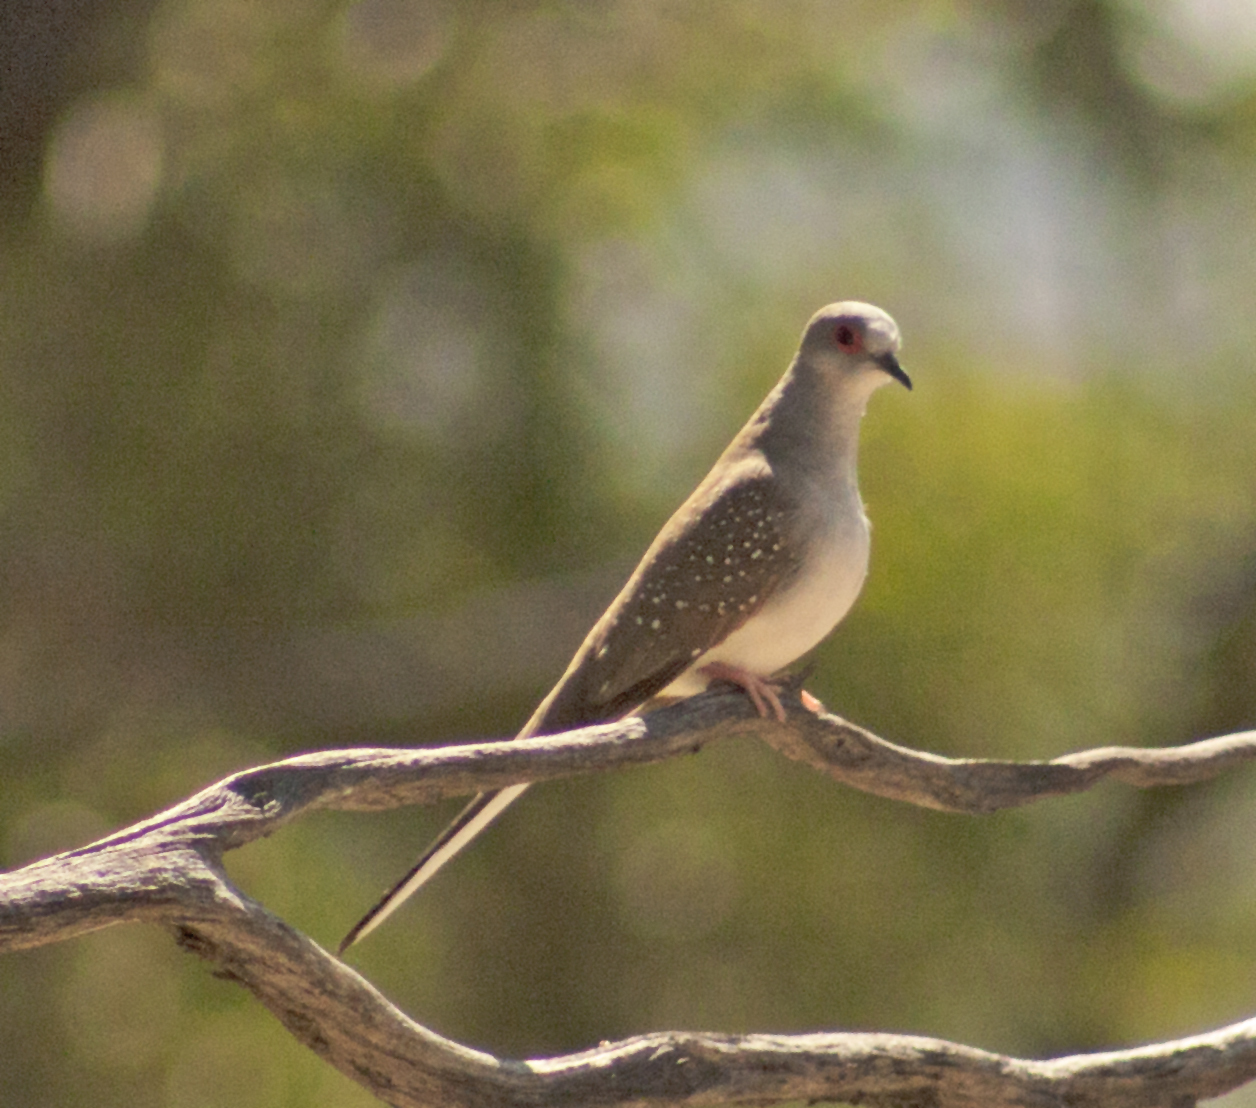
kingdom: Animalia
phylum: Chordata
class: Aves
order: Columbiformes
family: Columbidae
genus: Geopelia
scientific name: Geopelia cuneata
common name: Diamond dove
